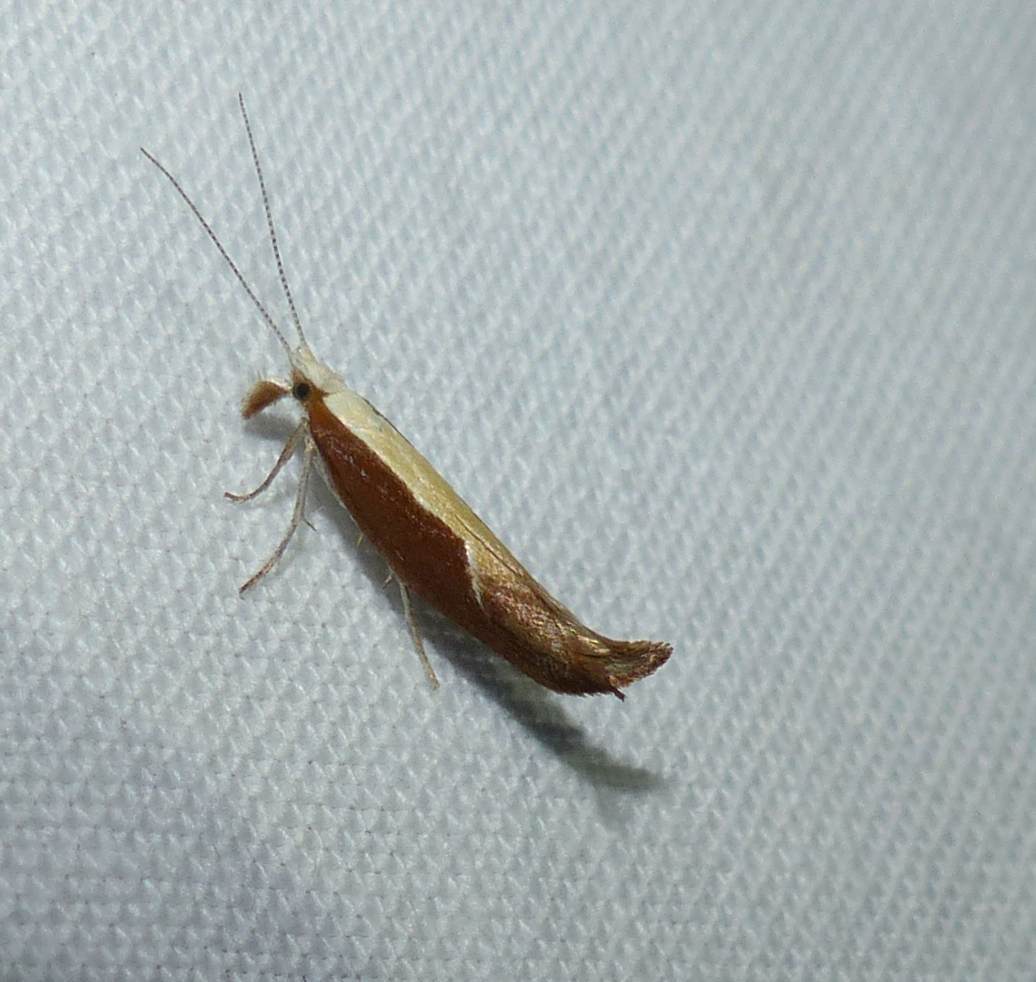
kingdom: Animalia
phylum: Arthropoda
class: Insecta
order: Lepidoptera
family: Ypsolophidae
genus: Ypsolopha
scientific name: Ypsolopha dentella
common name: Honeysuckle moth
